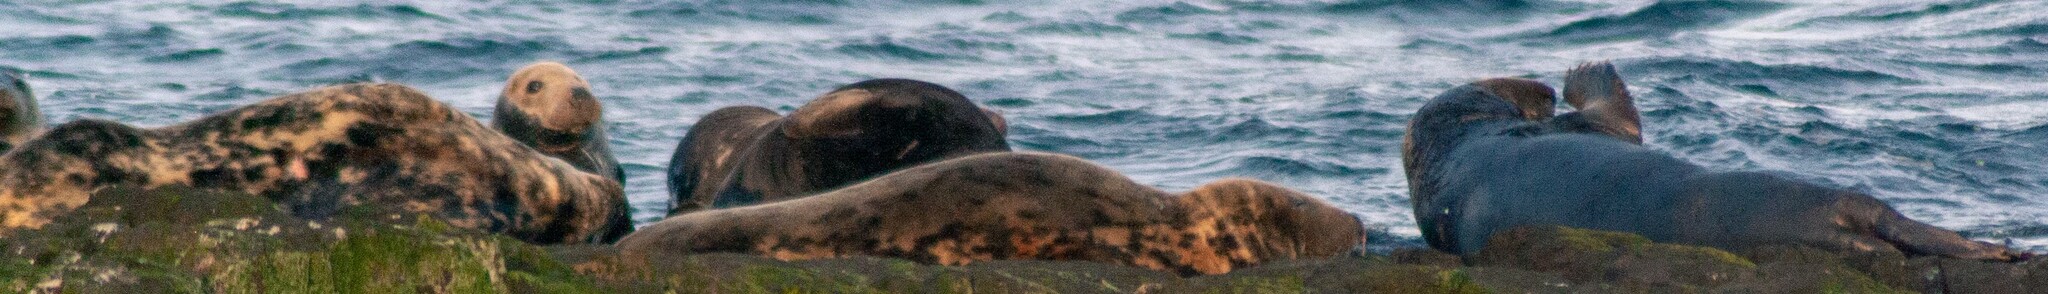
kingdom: Animalia
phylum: Chordata
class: Mammalia
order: Carnivora
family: Phocidae
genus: Halichoerus
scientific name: Halichoerus grypus
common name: Grey seal
